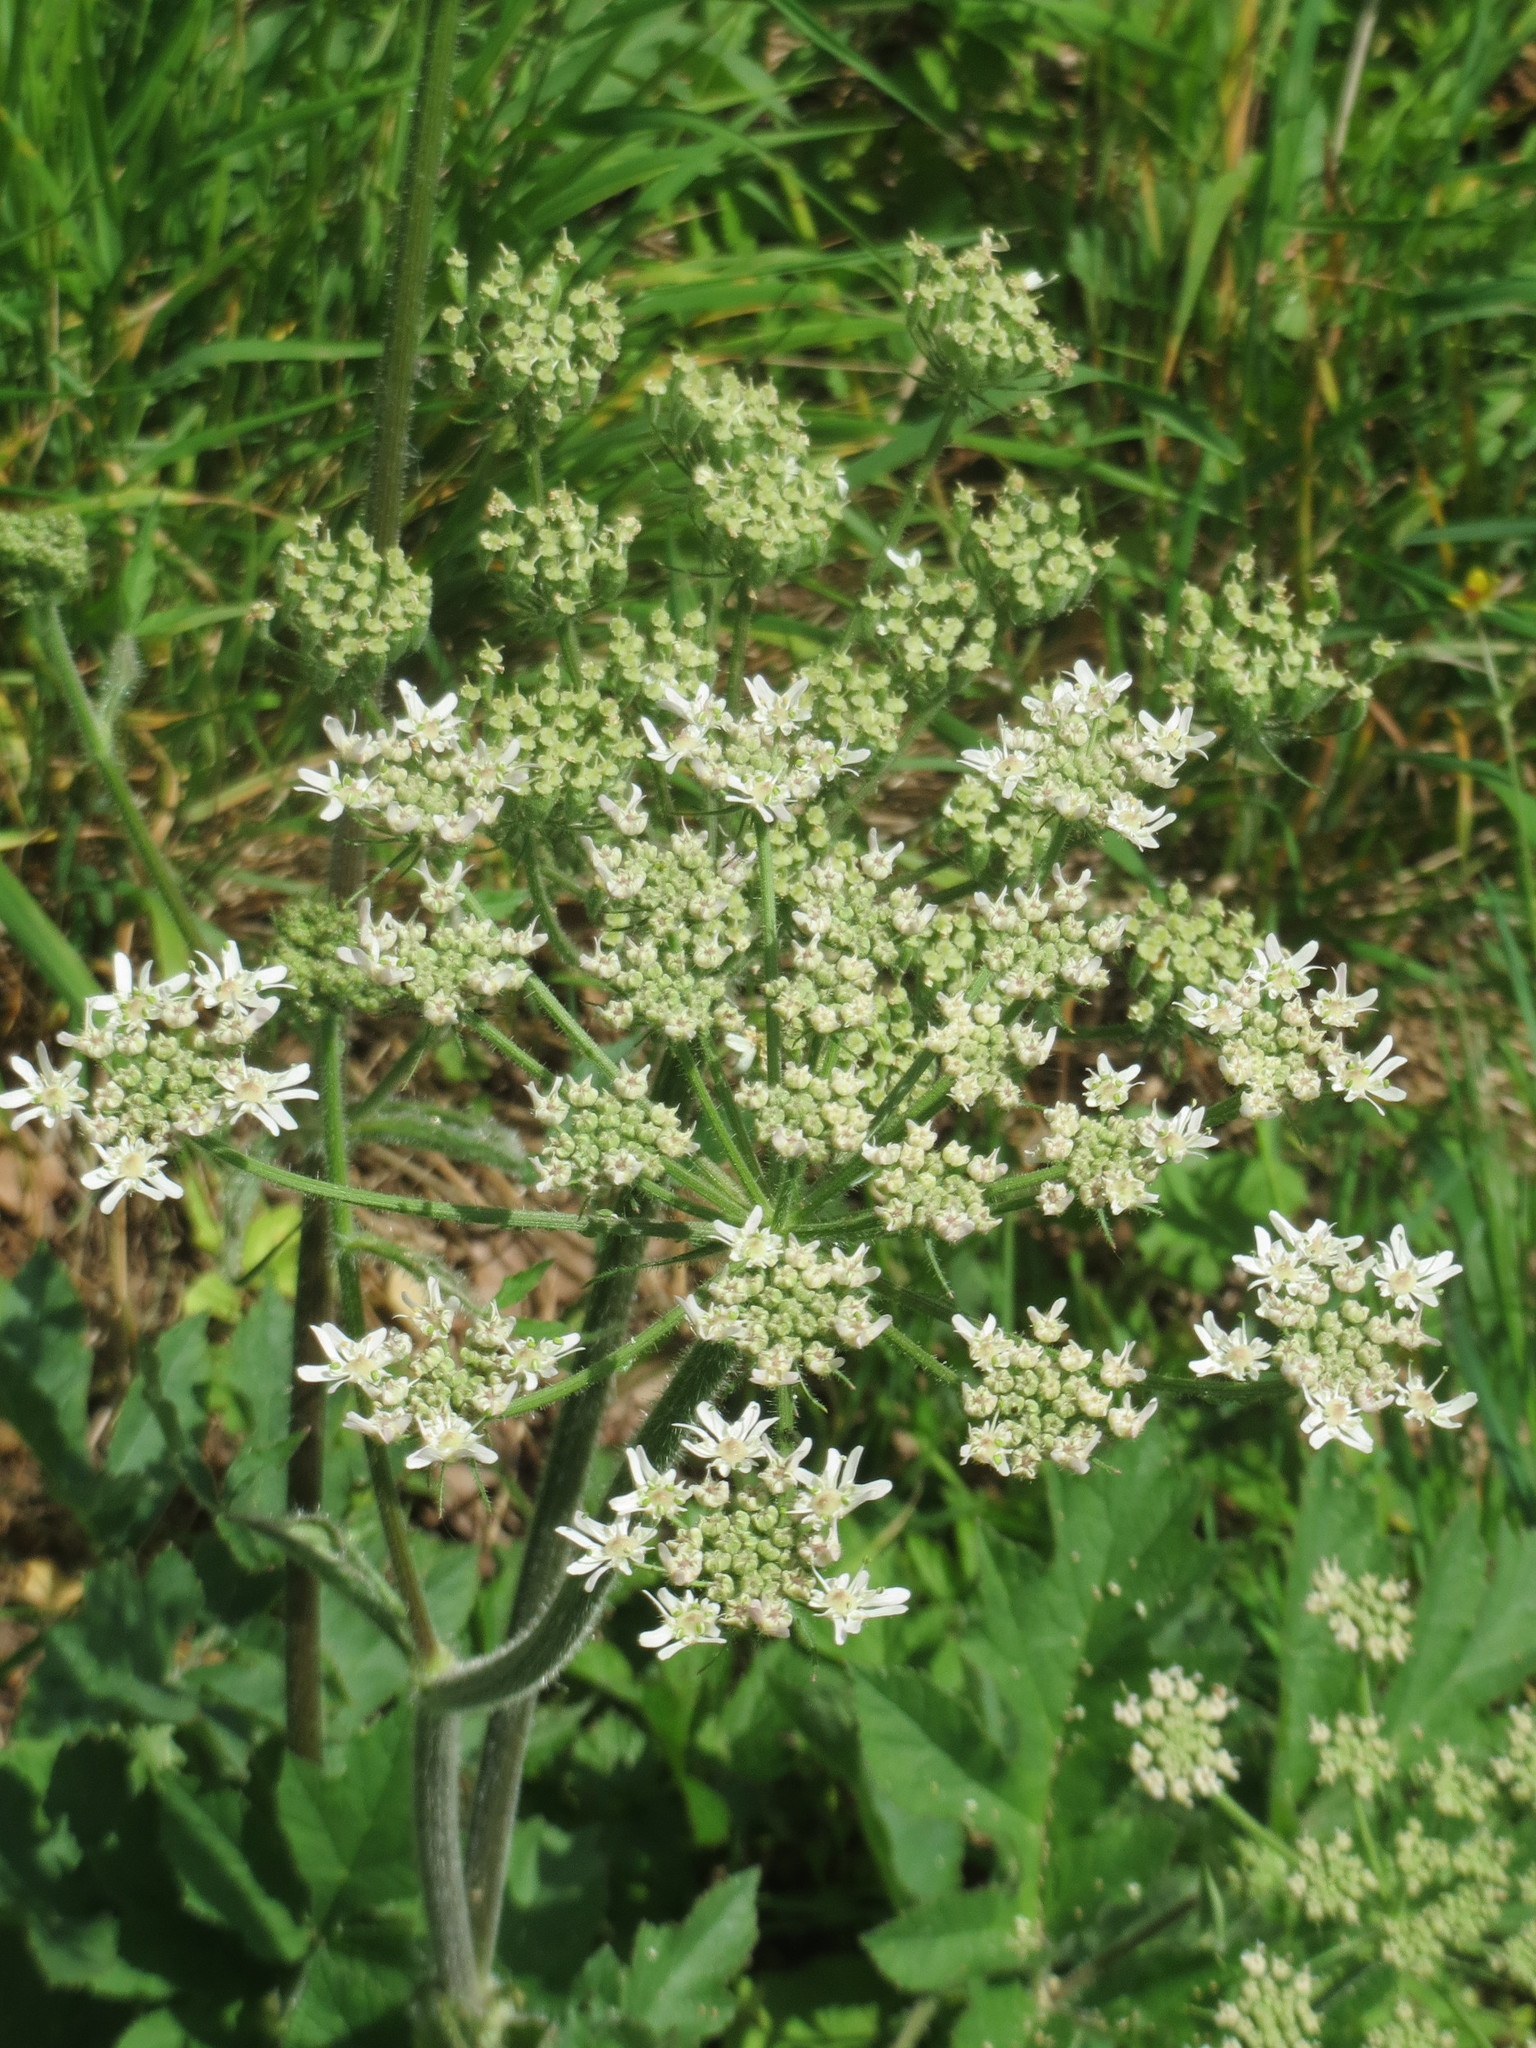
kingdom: Plantae
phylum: Tracheophyta
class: Magnoliopsida
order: Apiales
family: Apiaceae
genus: Heracleum
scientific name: Heracleum sphondylium
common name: Hogweed
